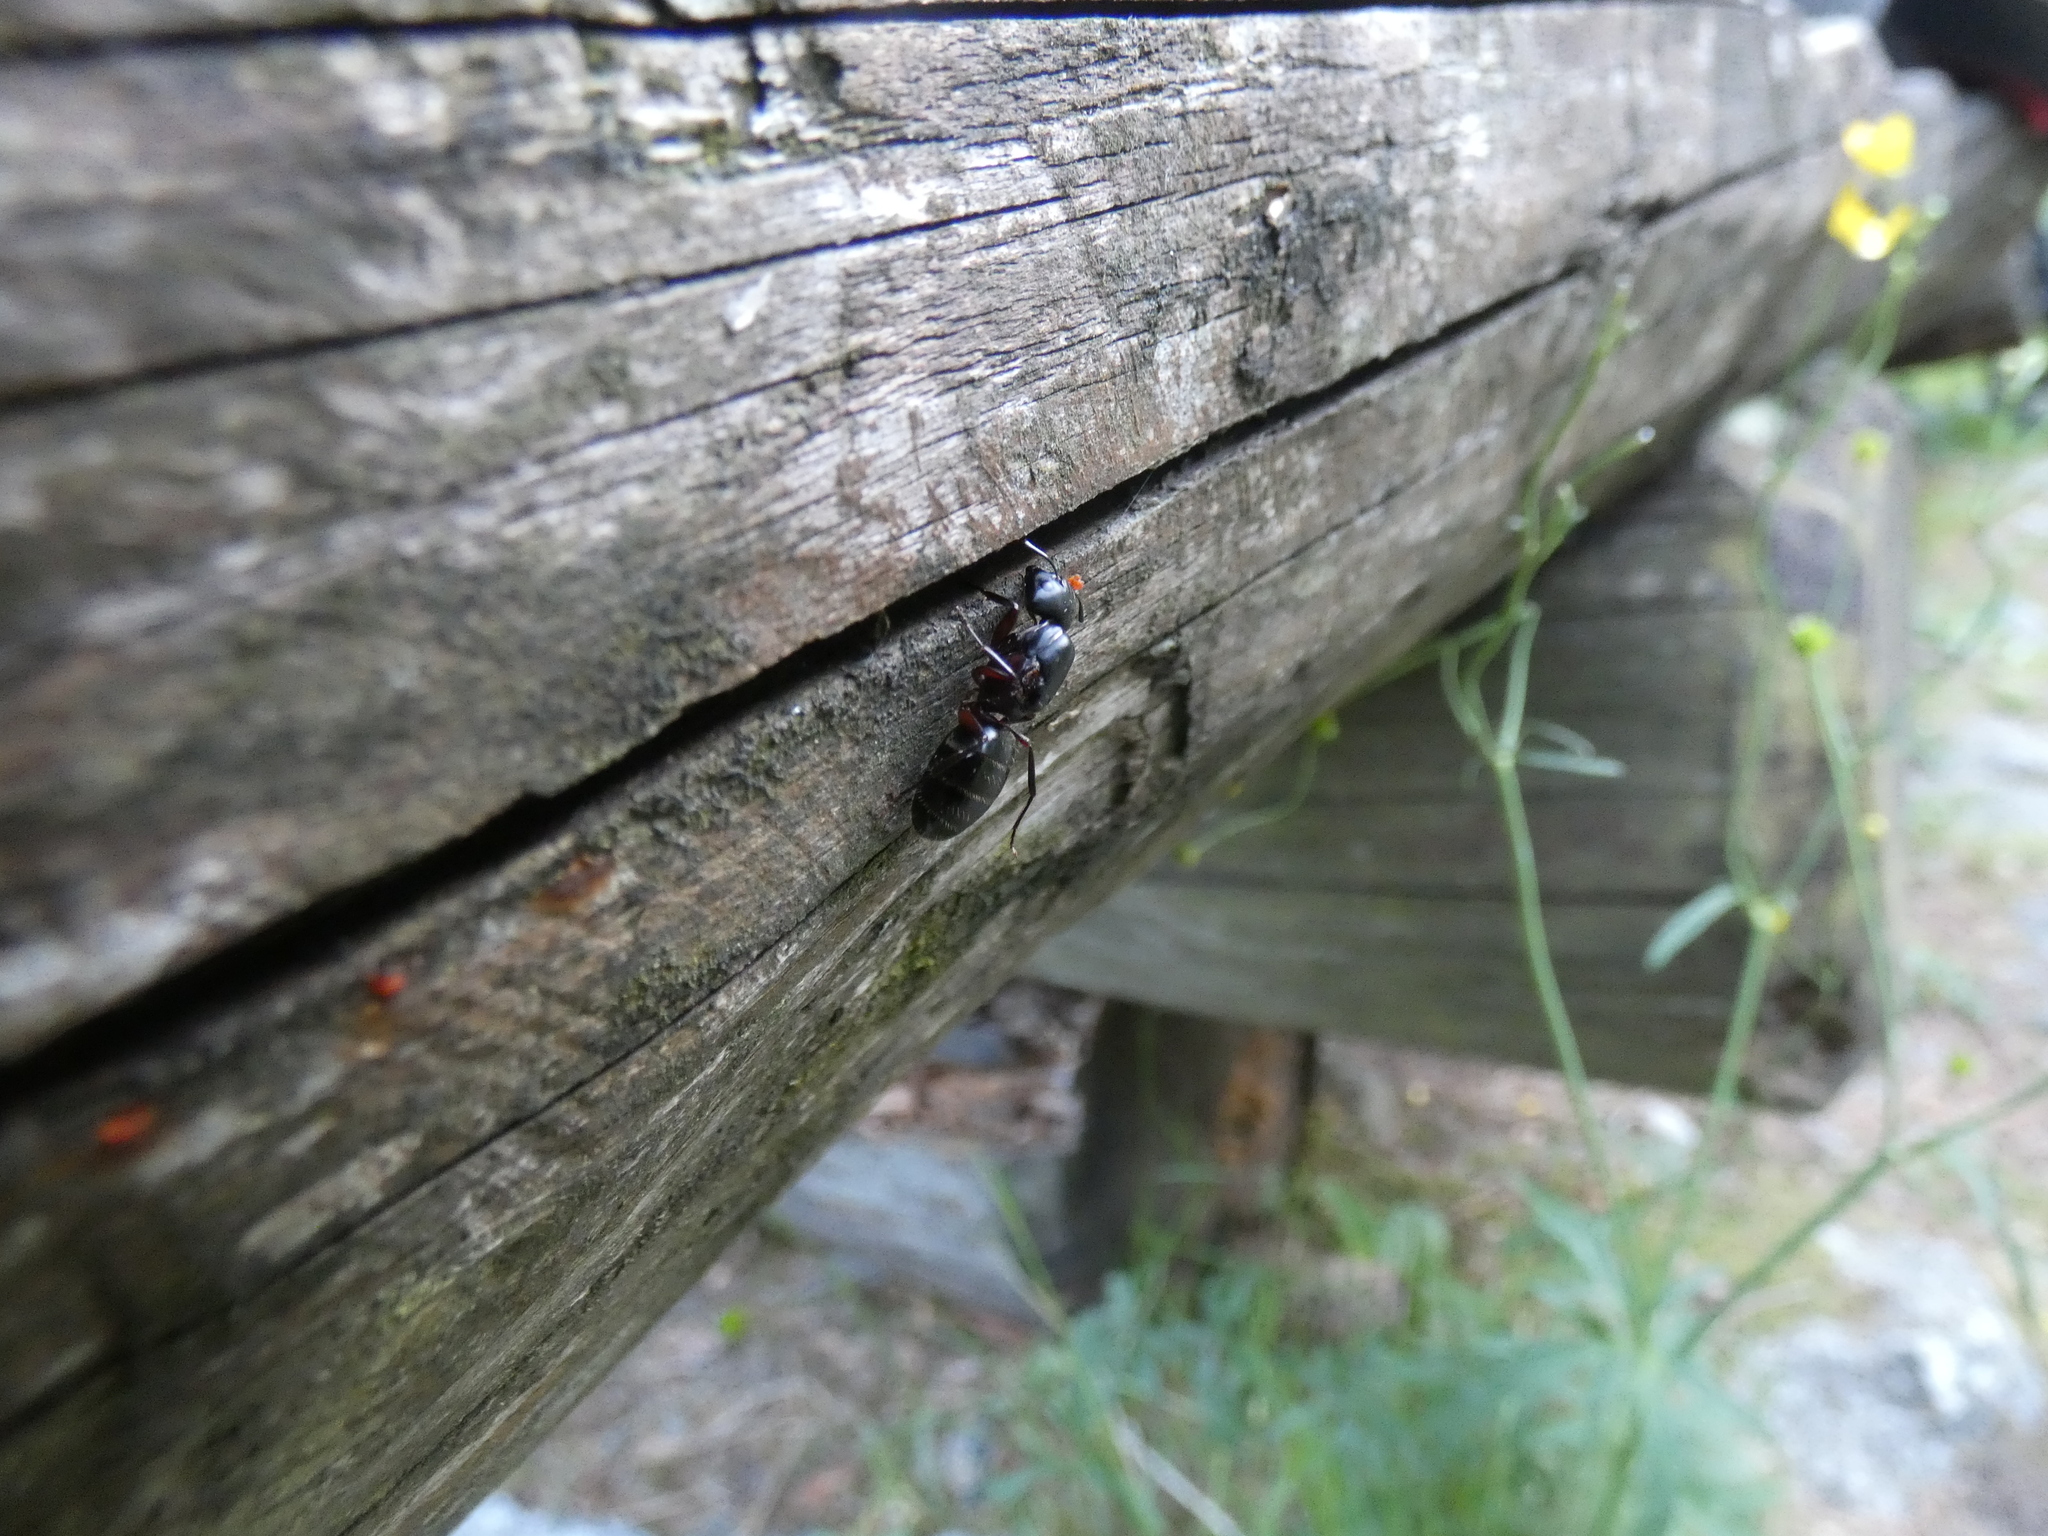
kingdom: Animalia
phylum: Arthropoda
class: Insecta
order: Hymenoptera
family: Formicidae
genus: Camponotus
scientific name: Camponotus herculeanus
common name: Hercules ant
